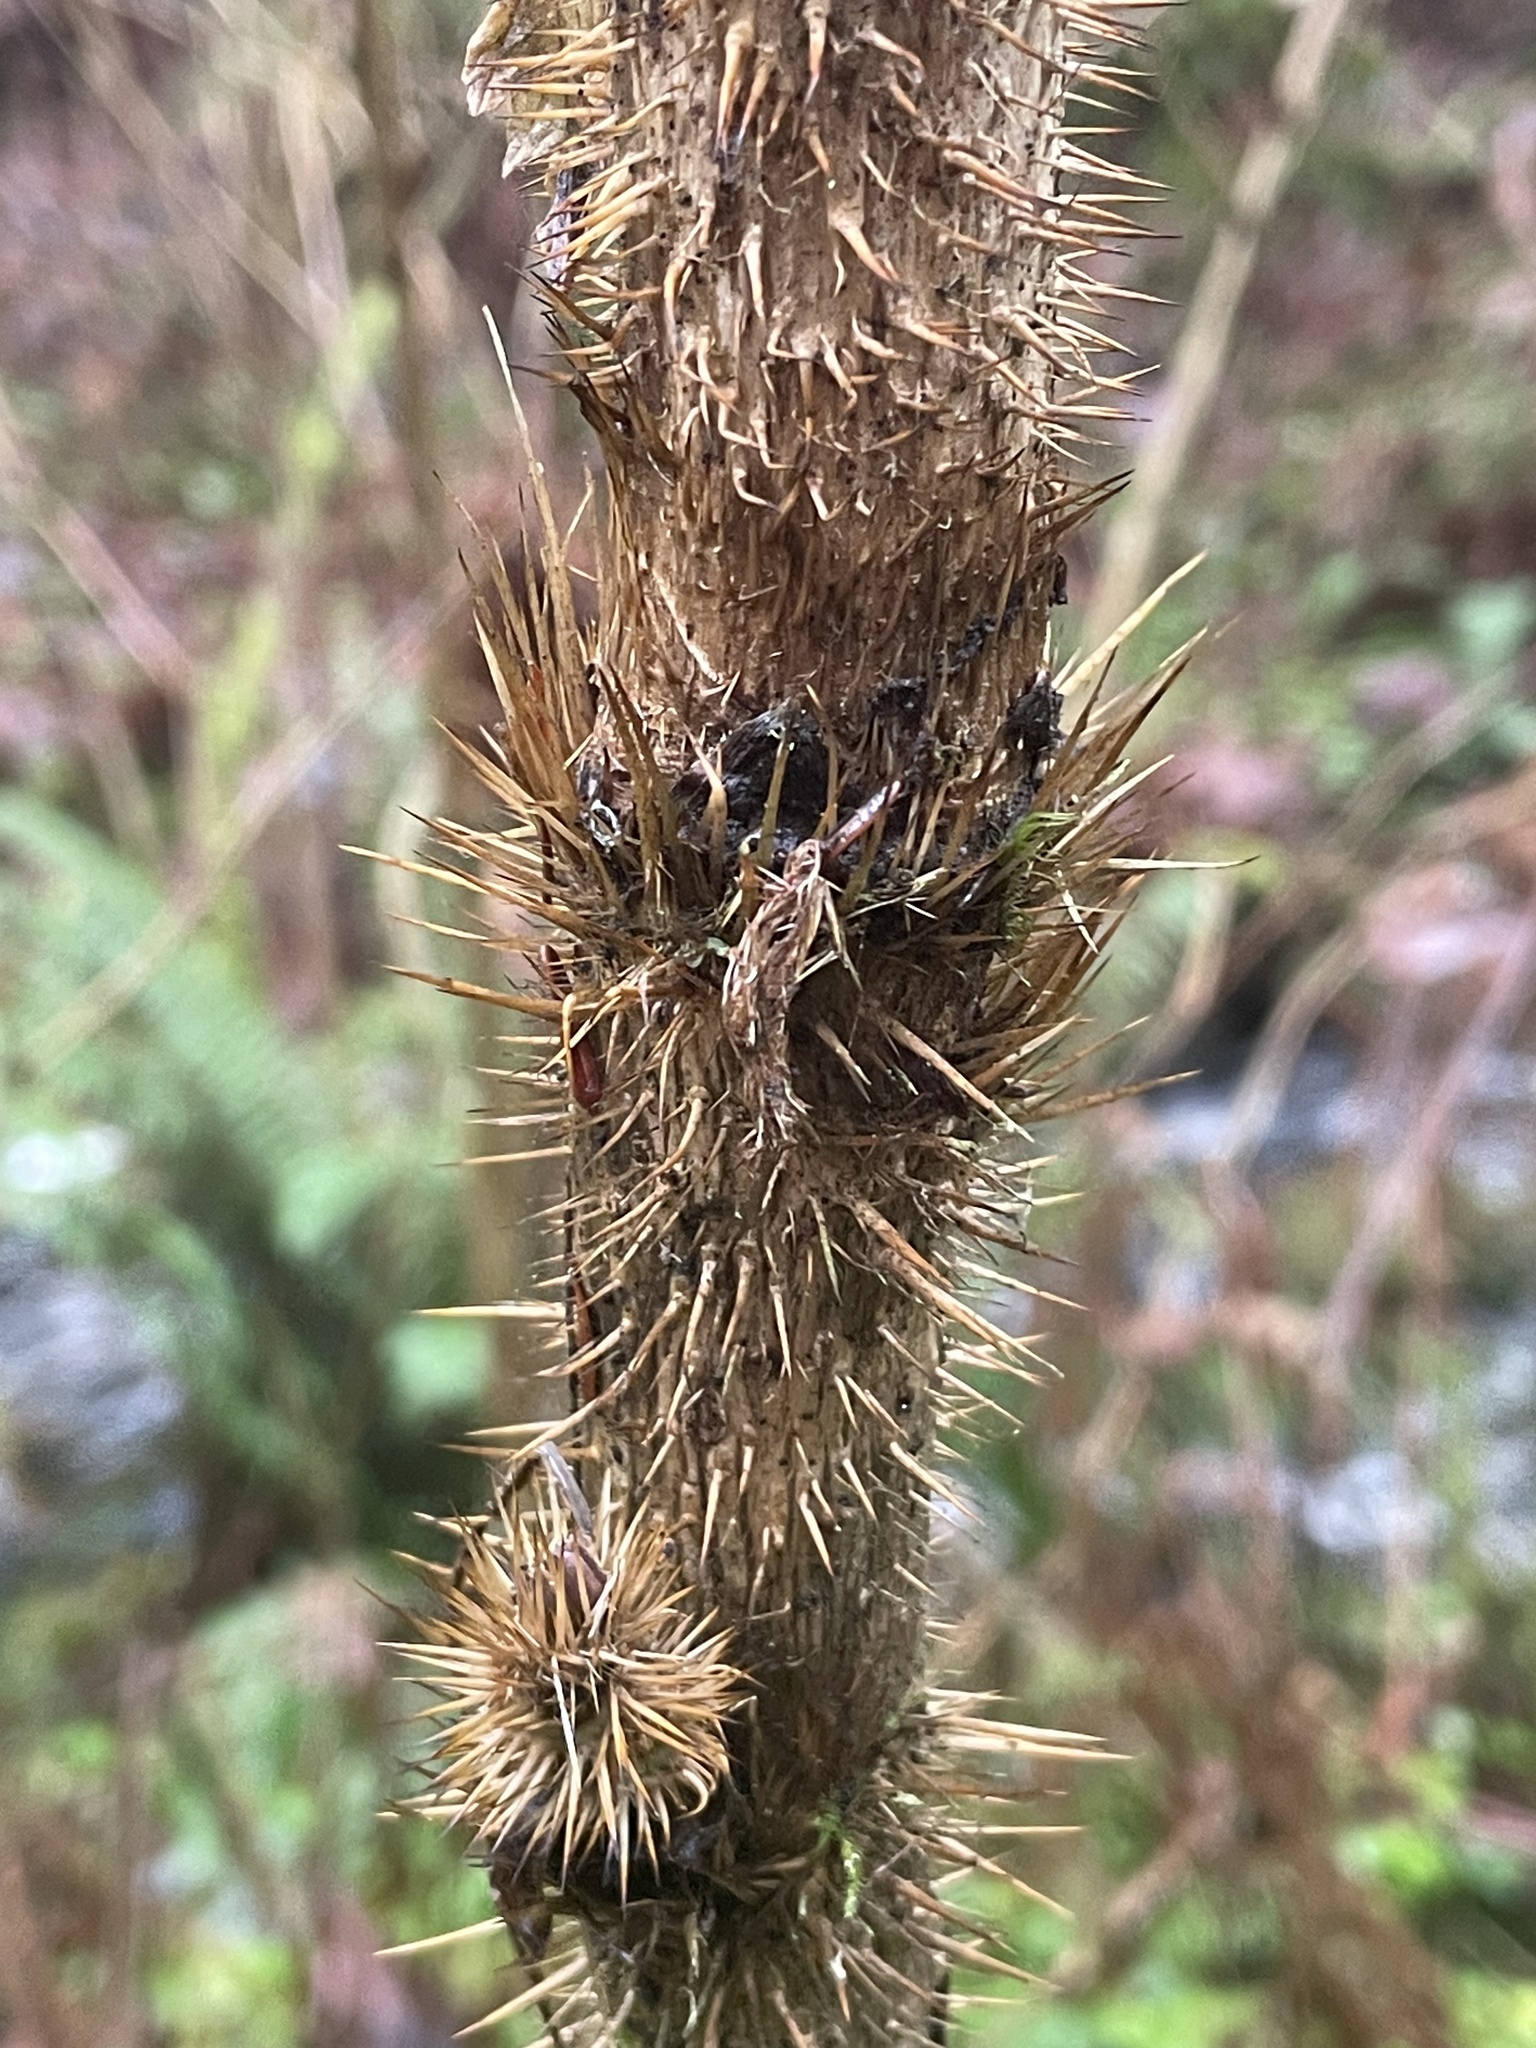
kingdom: Plantae
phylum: Tracheophyta
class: Magnoliopsida
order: Apiales
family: Araliaceae
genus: Oplopanax
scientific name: Oplopanax horridus
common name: Devil's walking-stick
